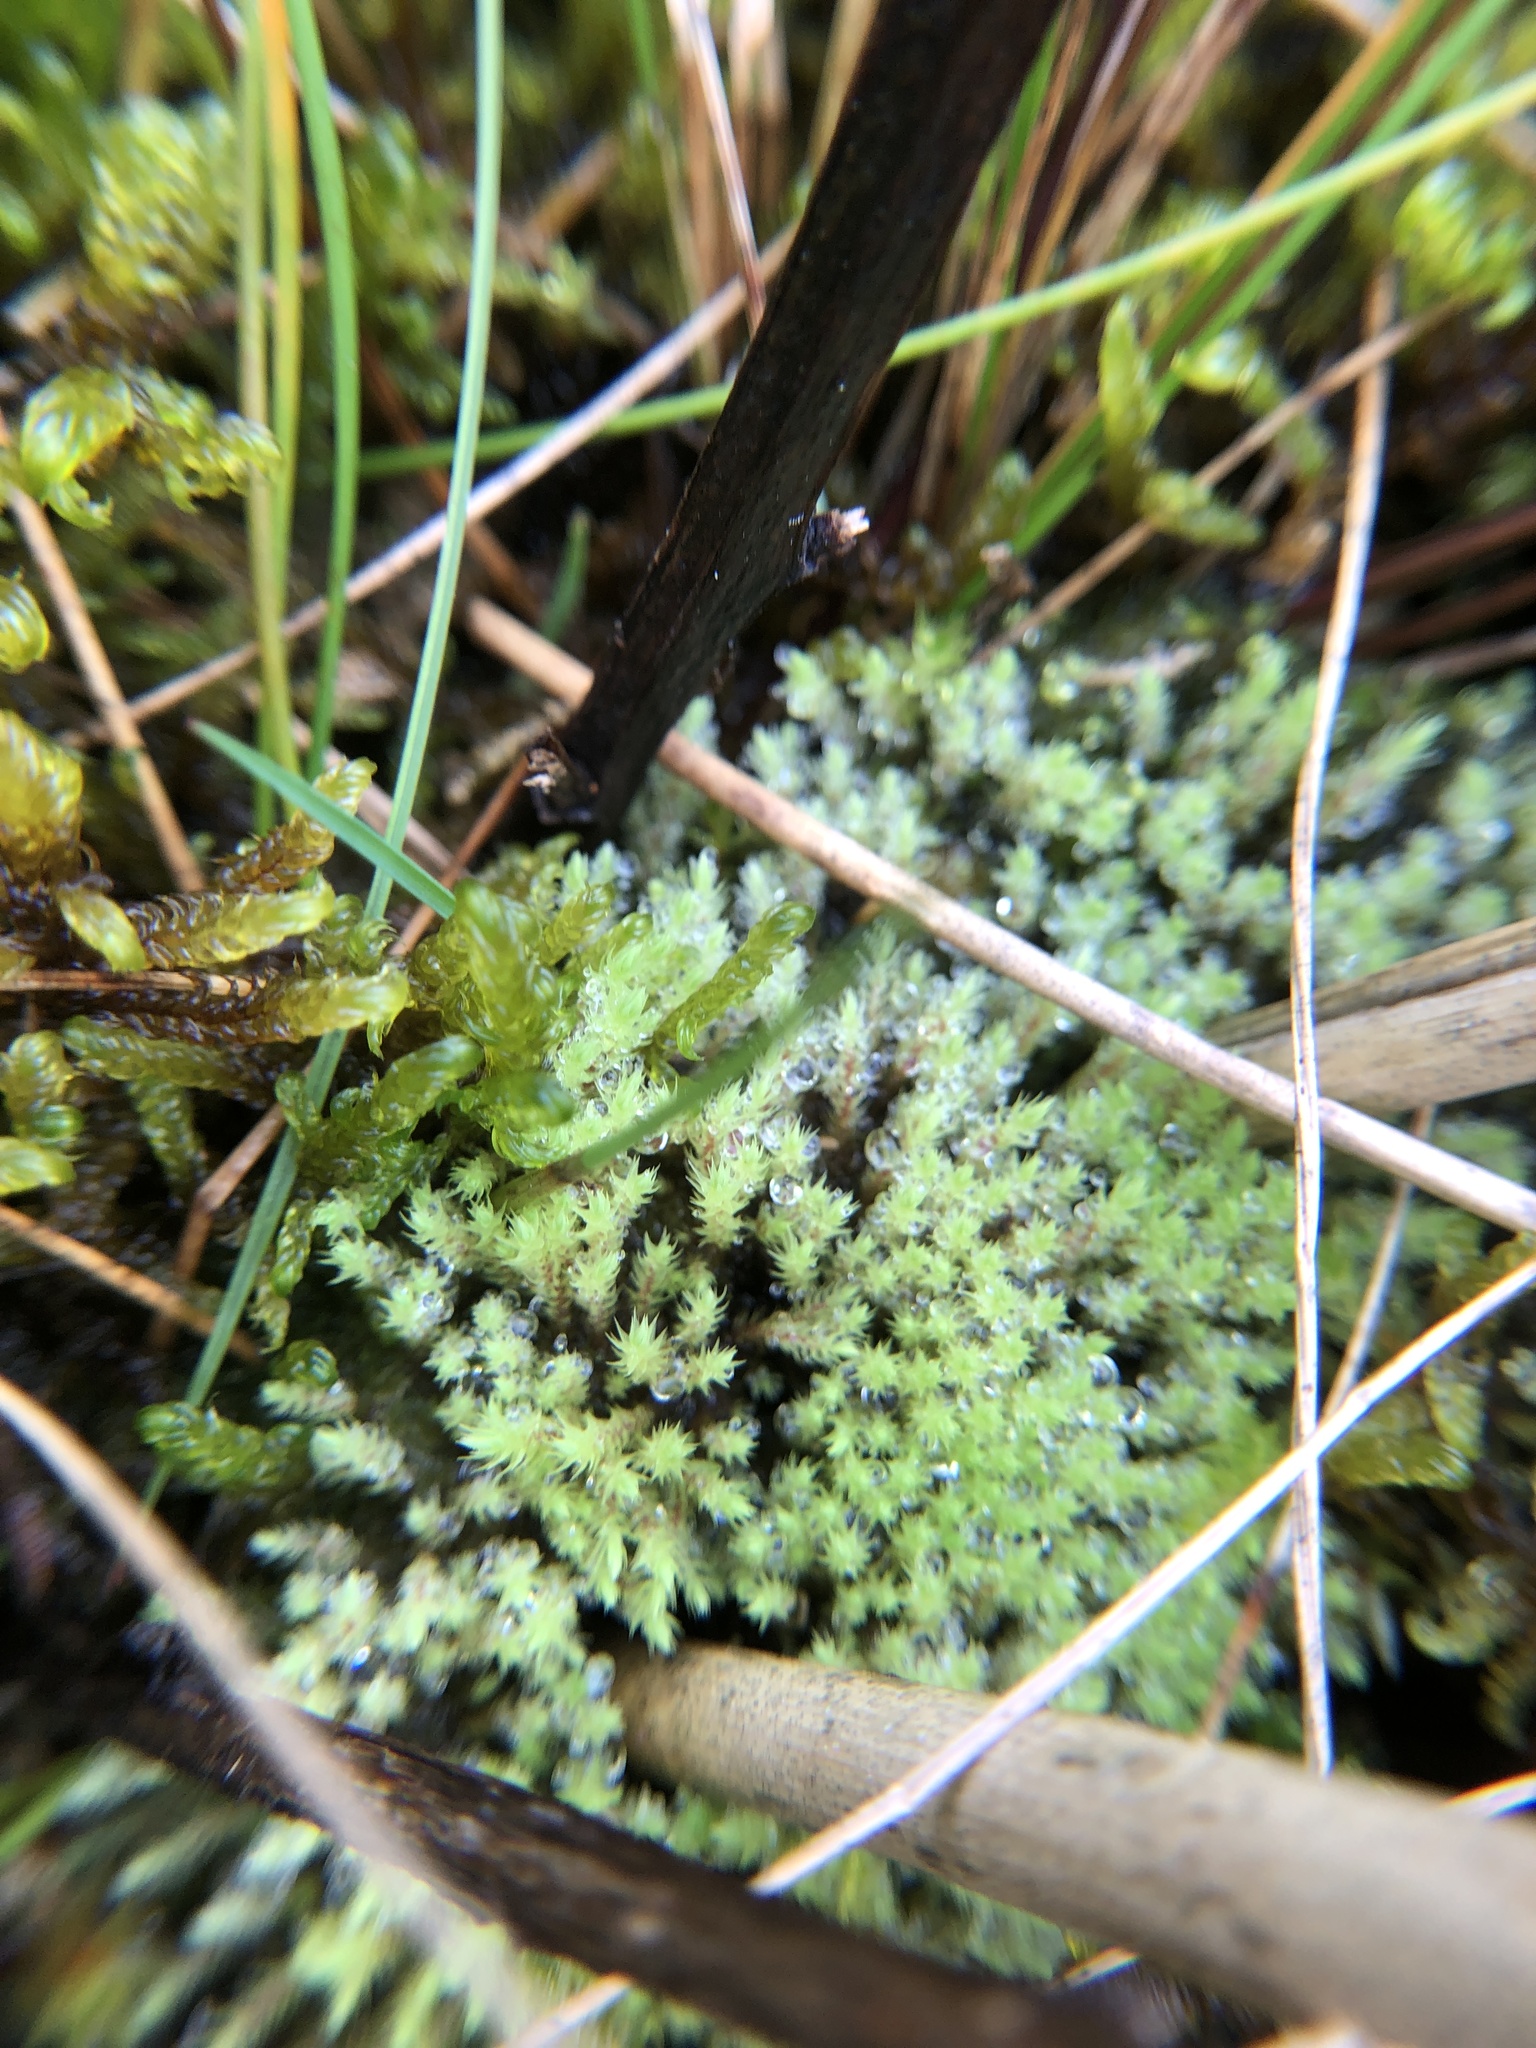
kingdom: Plantae
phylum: Bryophyta
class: Bryopsida
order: Bartramiales
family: Bartramiaceae
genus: Philonotis
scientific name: Philonotis fontana
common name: Fountain apple-moss
